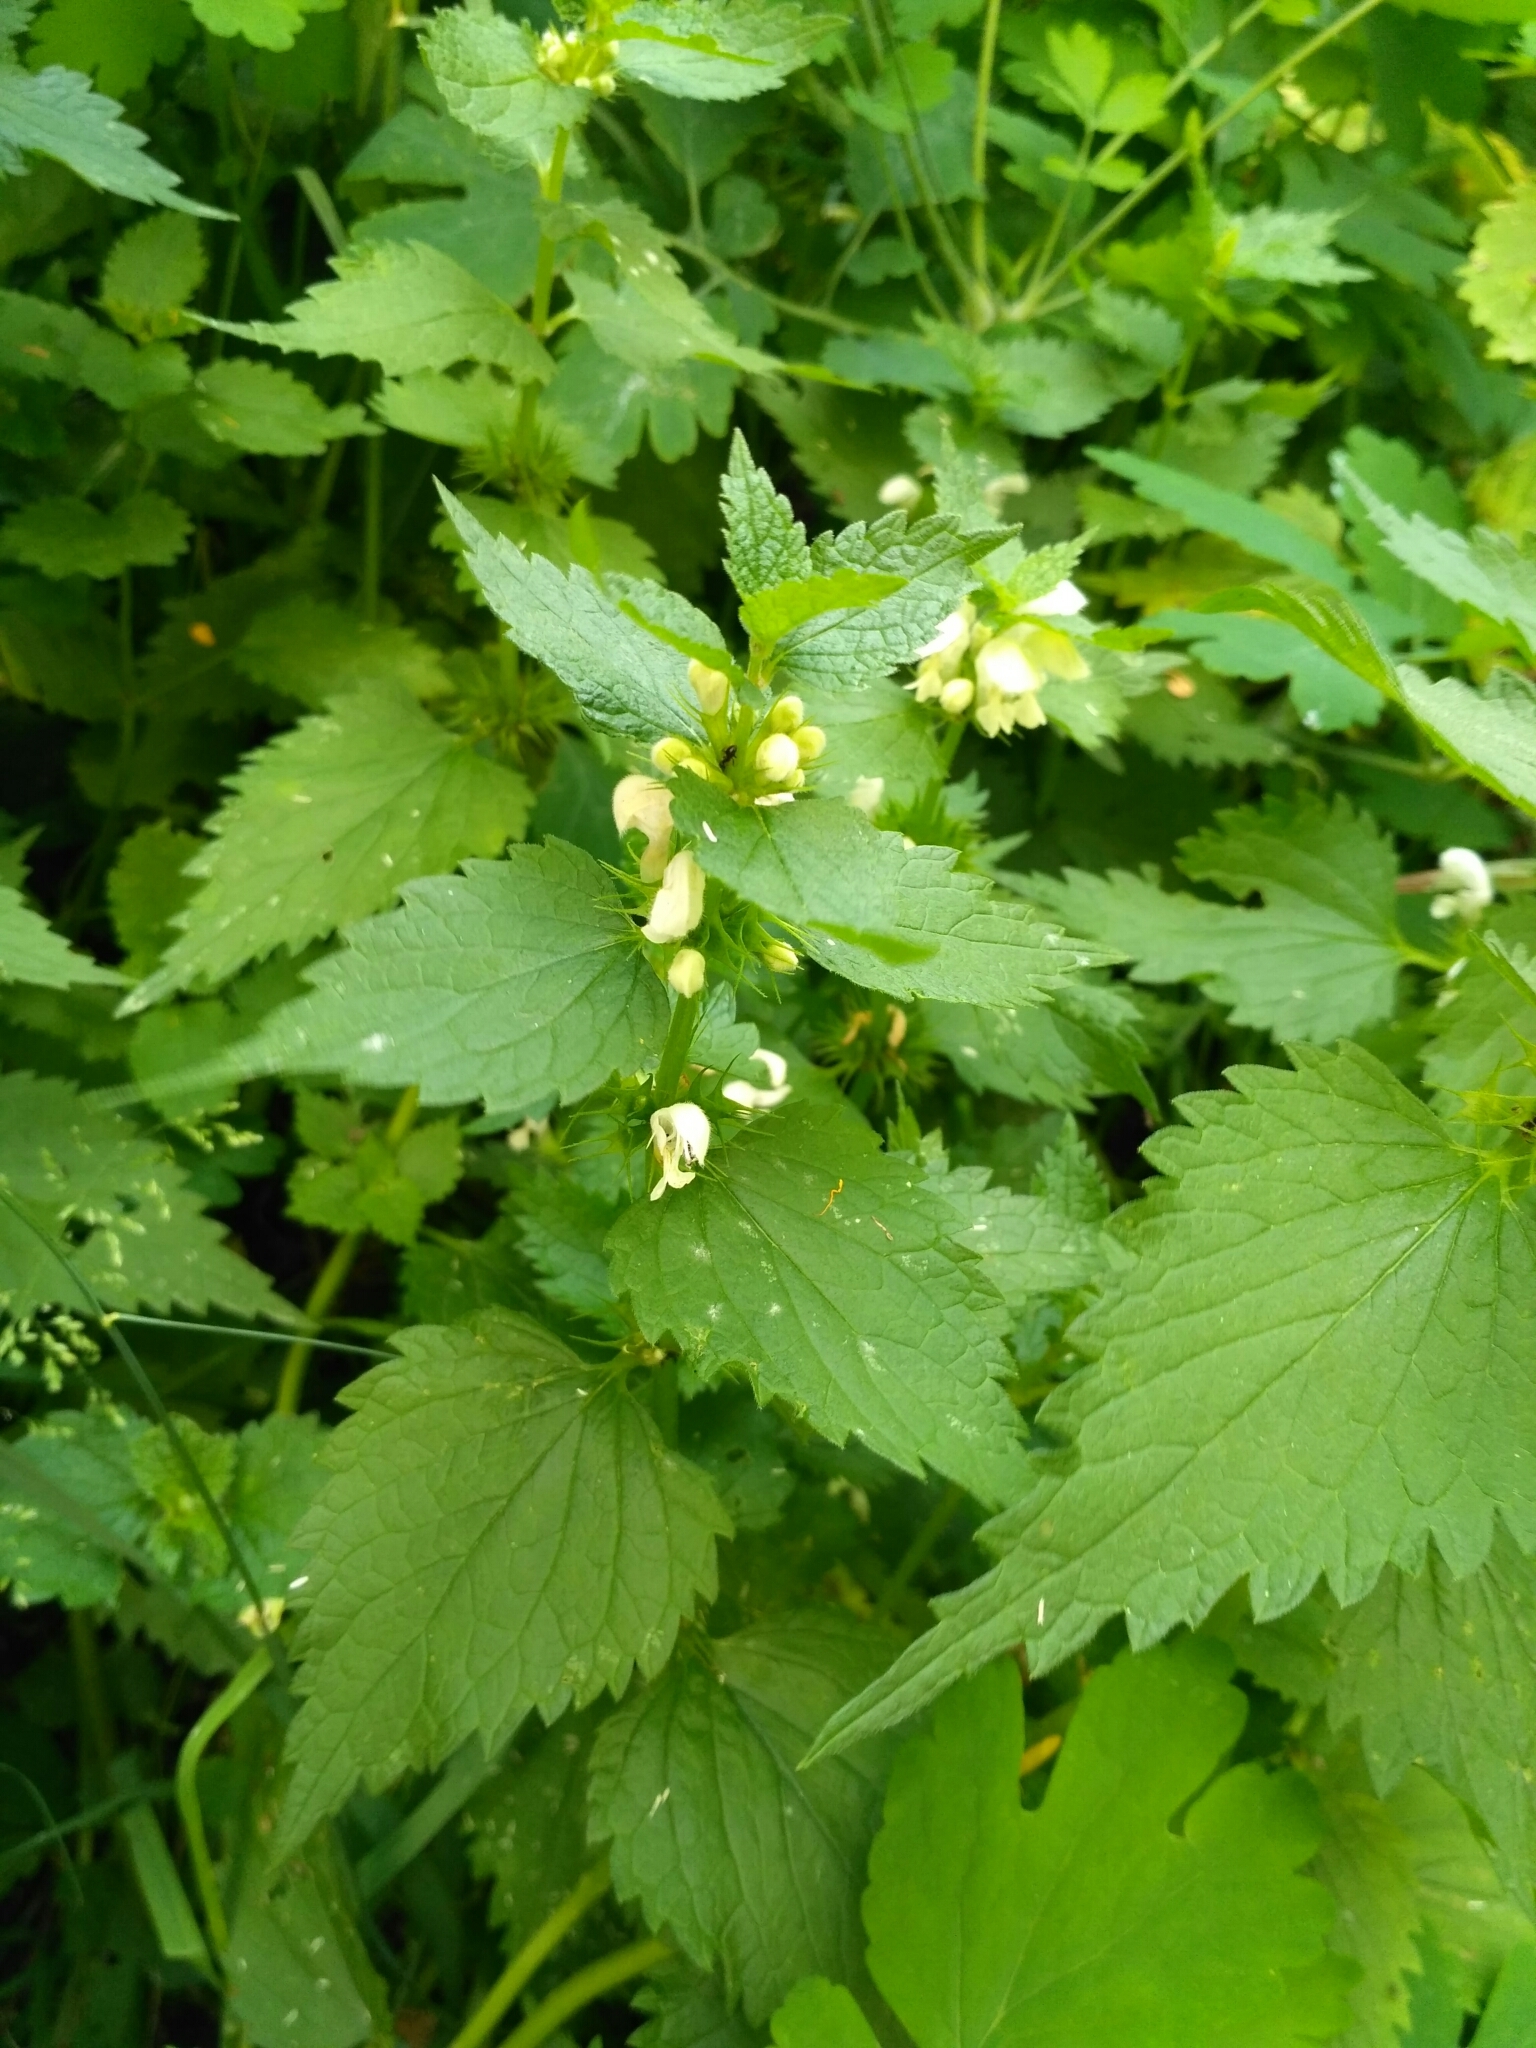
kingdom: Plantae
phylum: Tracheophyta
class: Magnoliopsida
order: Lamiales
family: Lamiaceae
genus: Lamium
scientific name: Lamium album
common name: White dead-nettle
